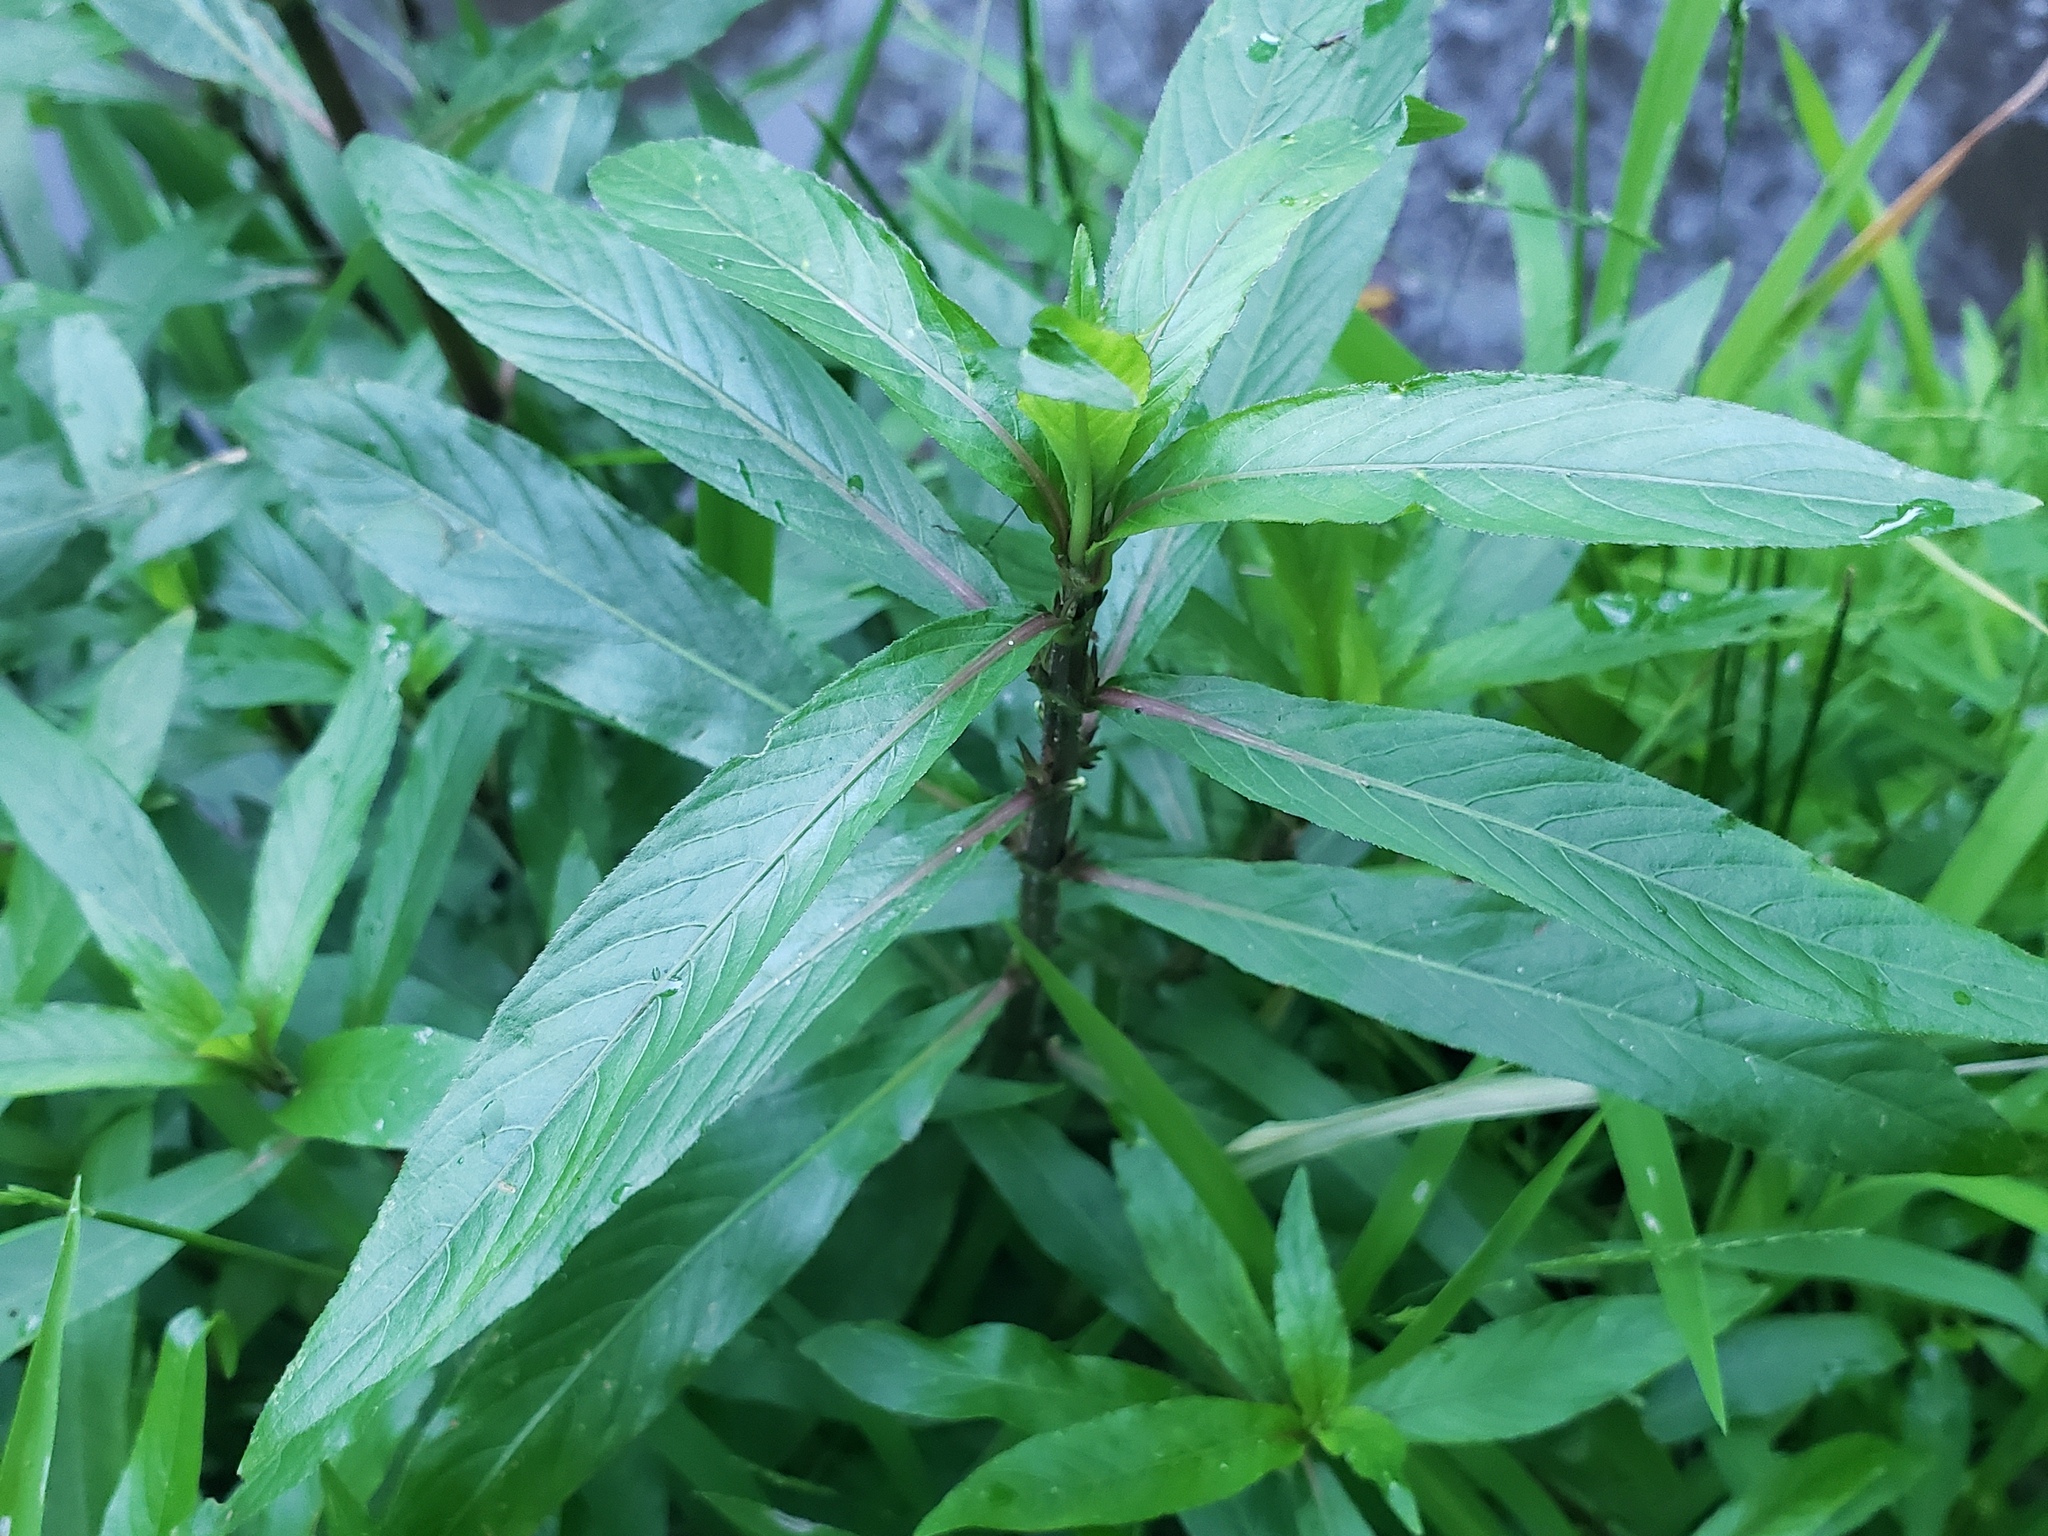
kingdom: Plantae
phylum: Tracheophyta
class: Magnoliopsida
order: Lamiales
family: Acanthaceae
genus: Hygrophila
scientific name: Hygrophila costata
